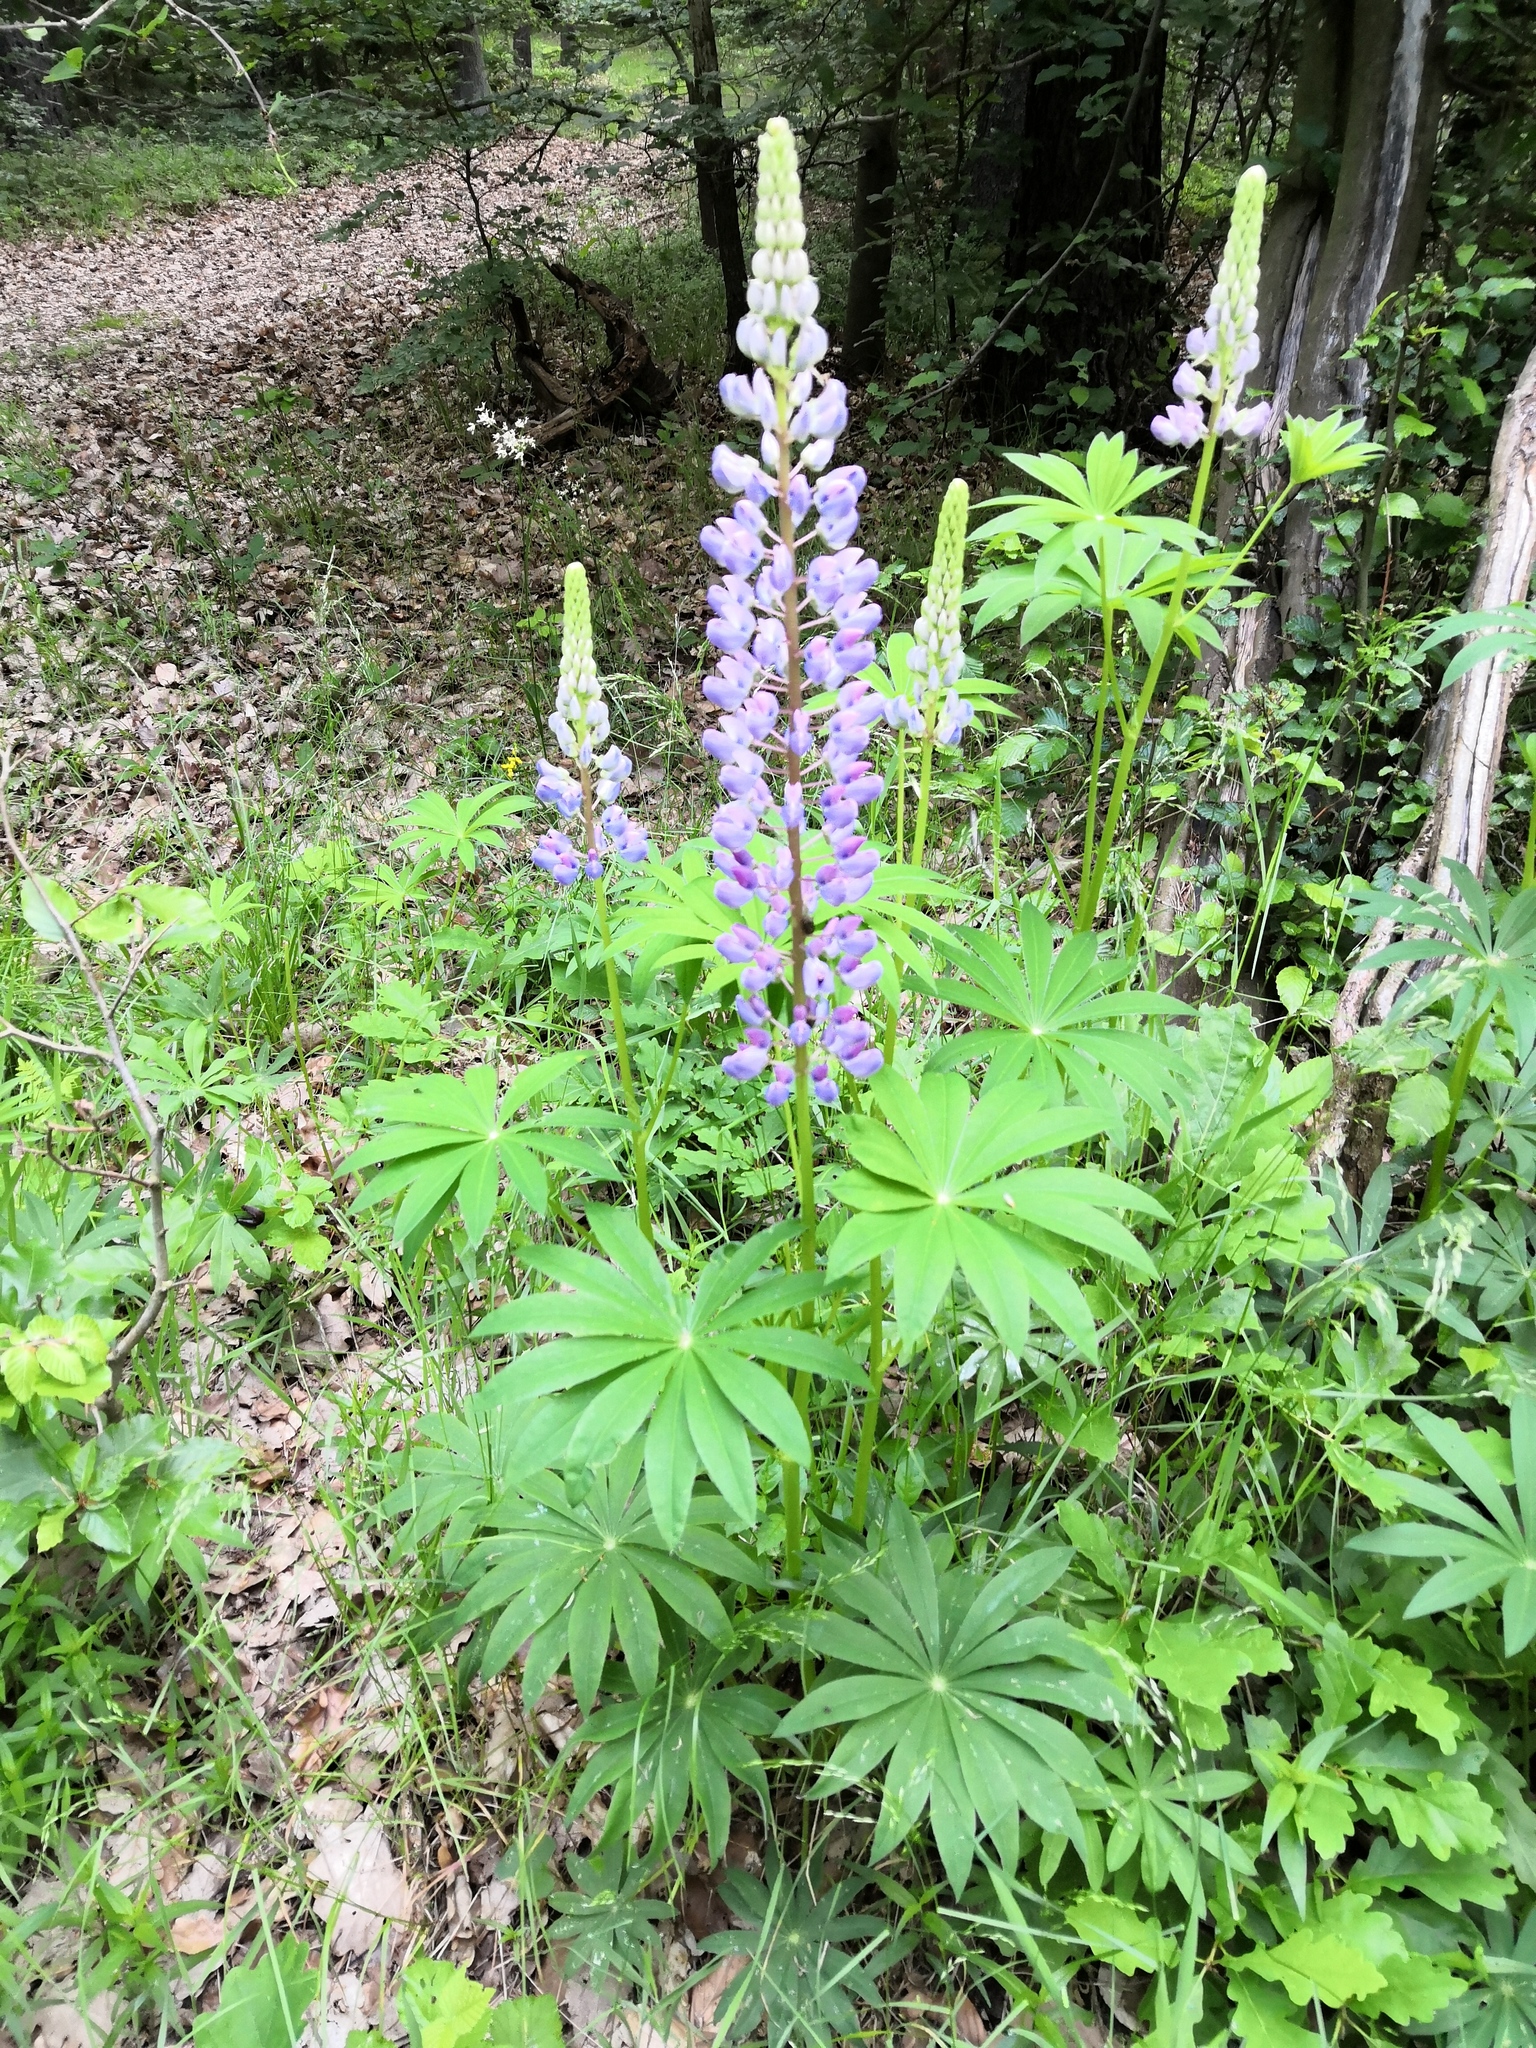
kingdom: Plantae
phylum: Tracheophyta
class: Magnoliopsida
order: Fabales
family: Fabaceae
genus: Lupinus
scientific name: Lupinus polyphyllus
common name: Garden lupin
